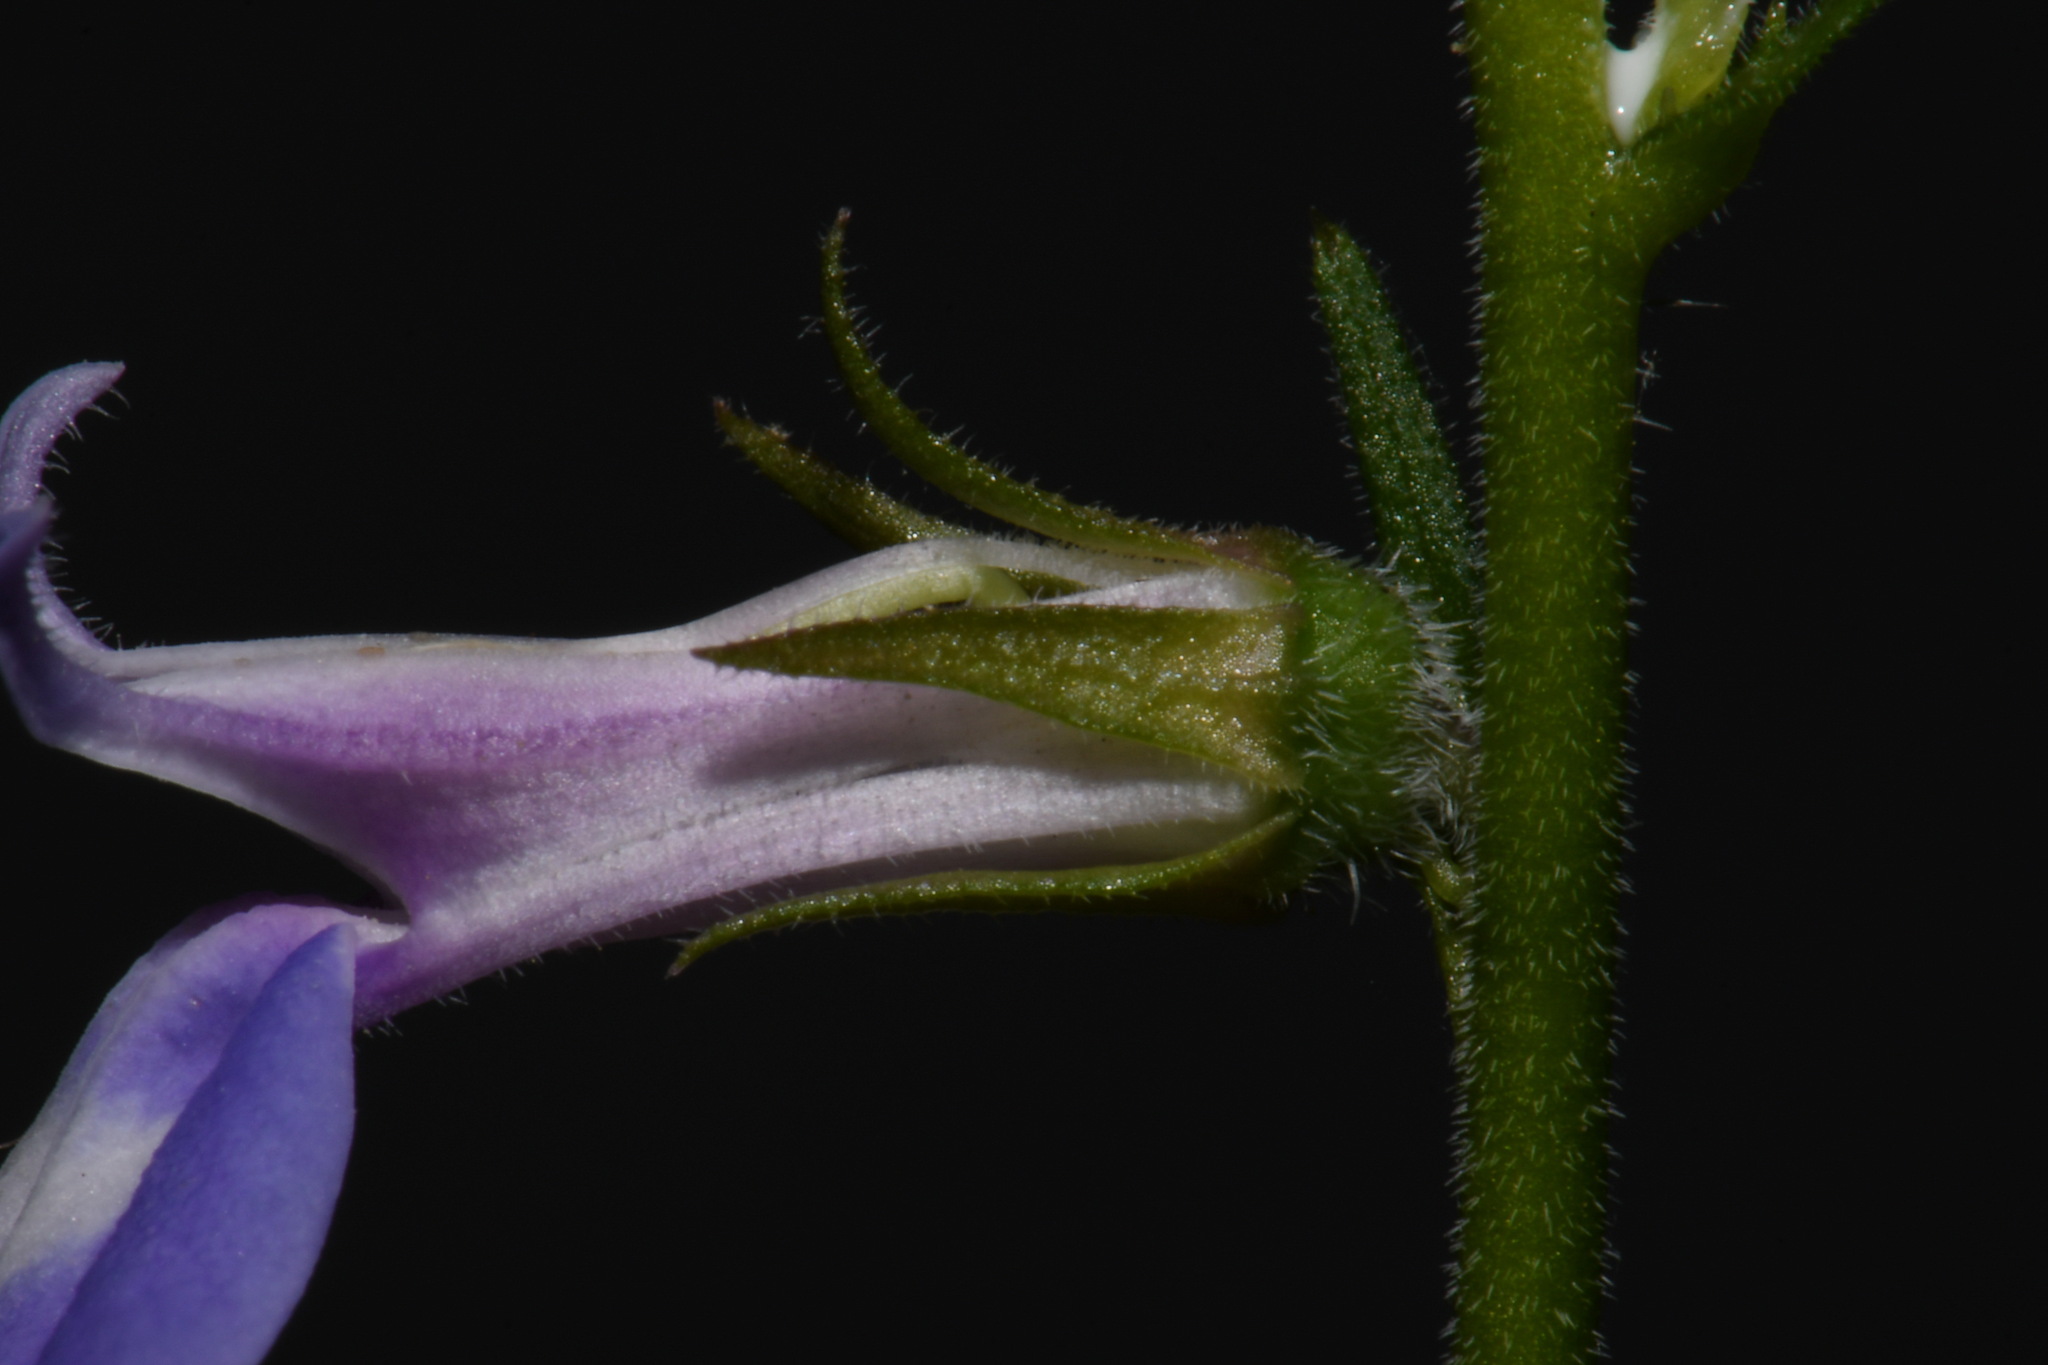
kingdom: Plantae
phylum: Tracheophyta
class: Magnoliopsida
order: Asterales
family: Campanulaceae
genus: Lobelia
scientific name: Lobelia puberula
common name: Purple dewdrop
